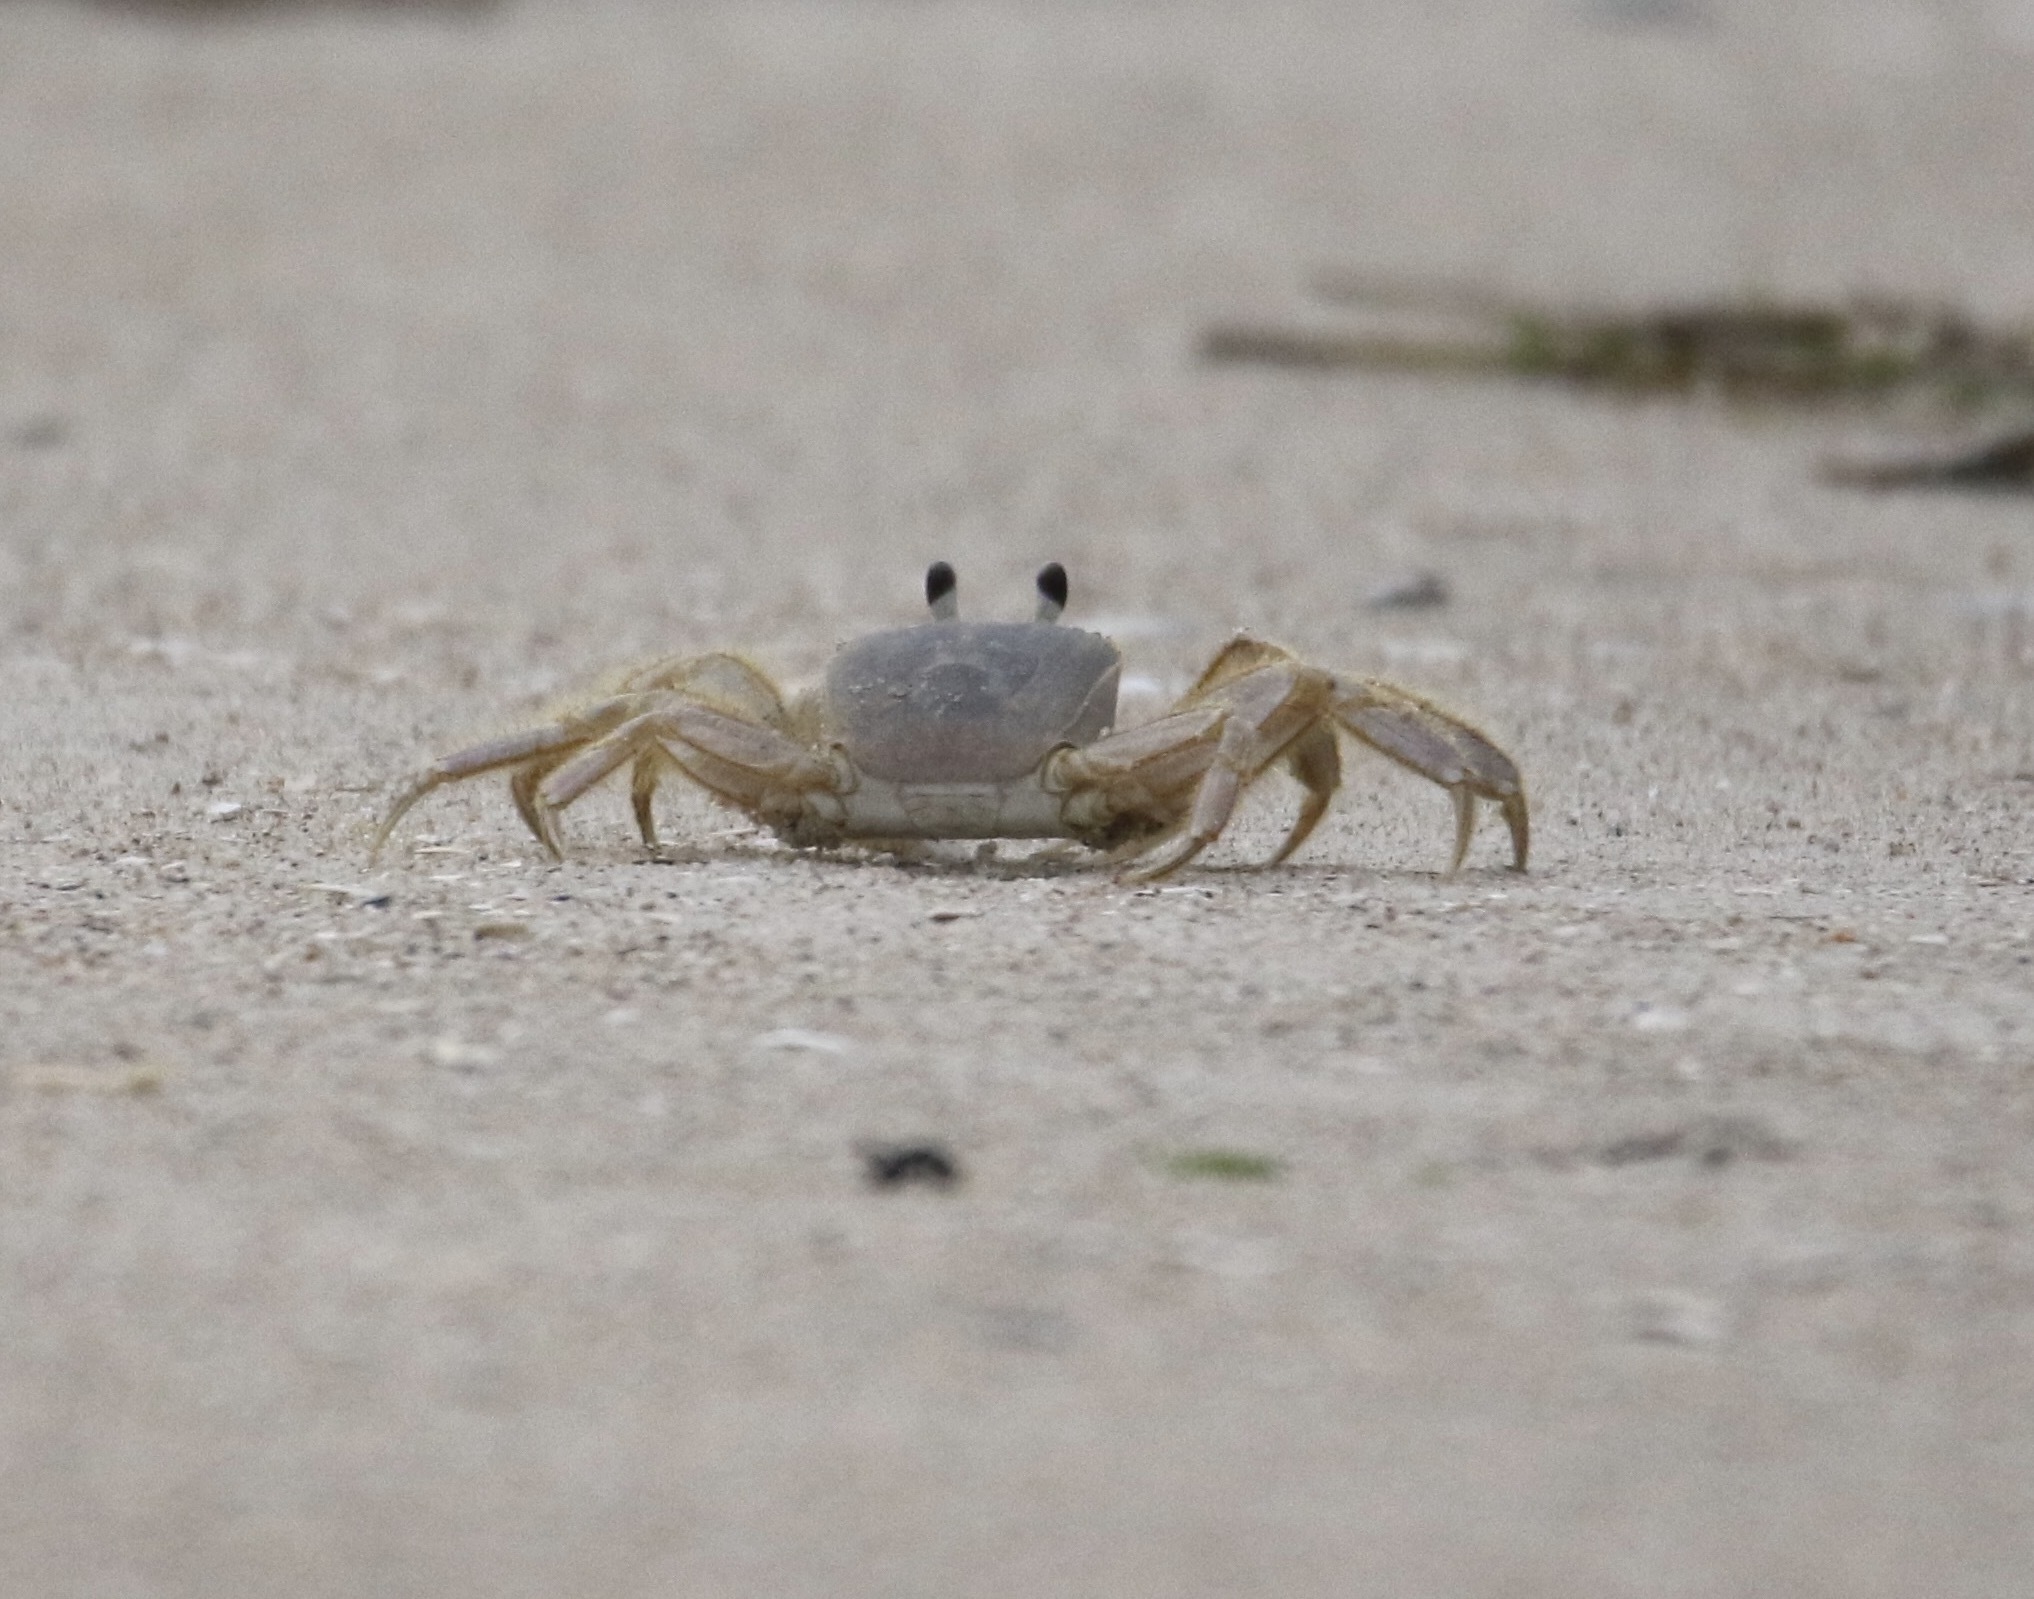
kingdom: Animalia
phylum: Arthropoda
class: Malacostraca
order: Decapoda
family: Ocypodidae
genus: Ocypode
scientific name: Ocypode quadrata
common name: Ghost crab
